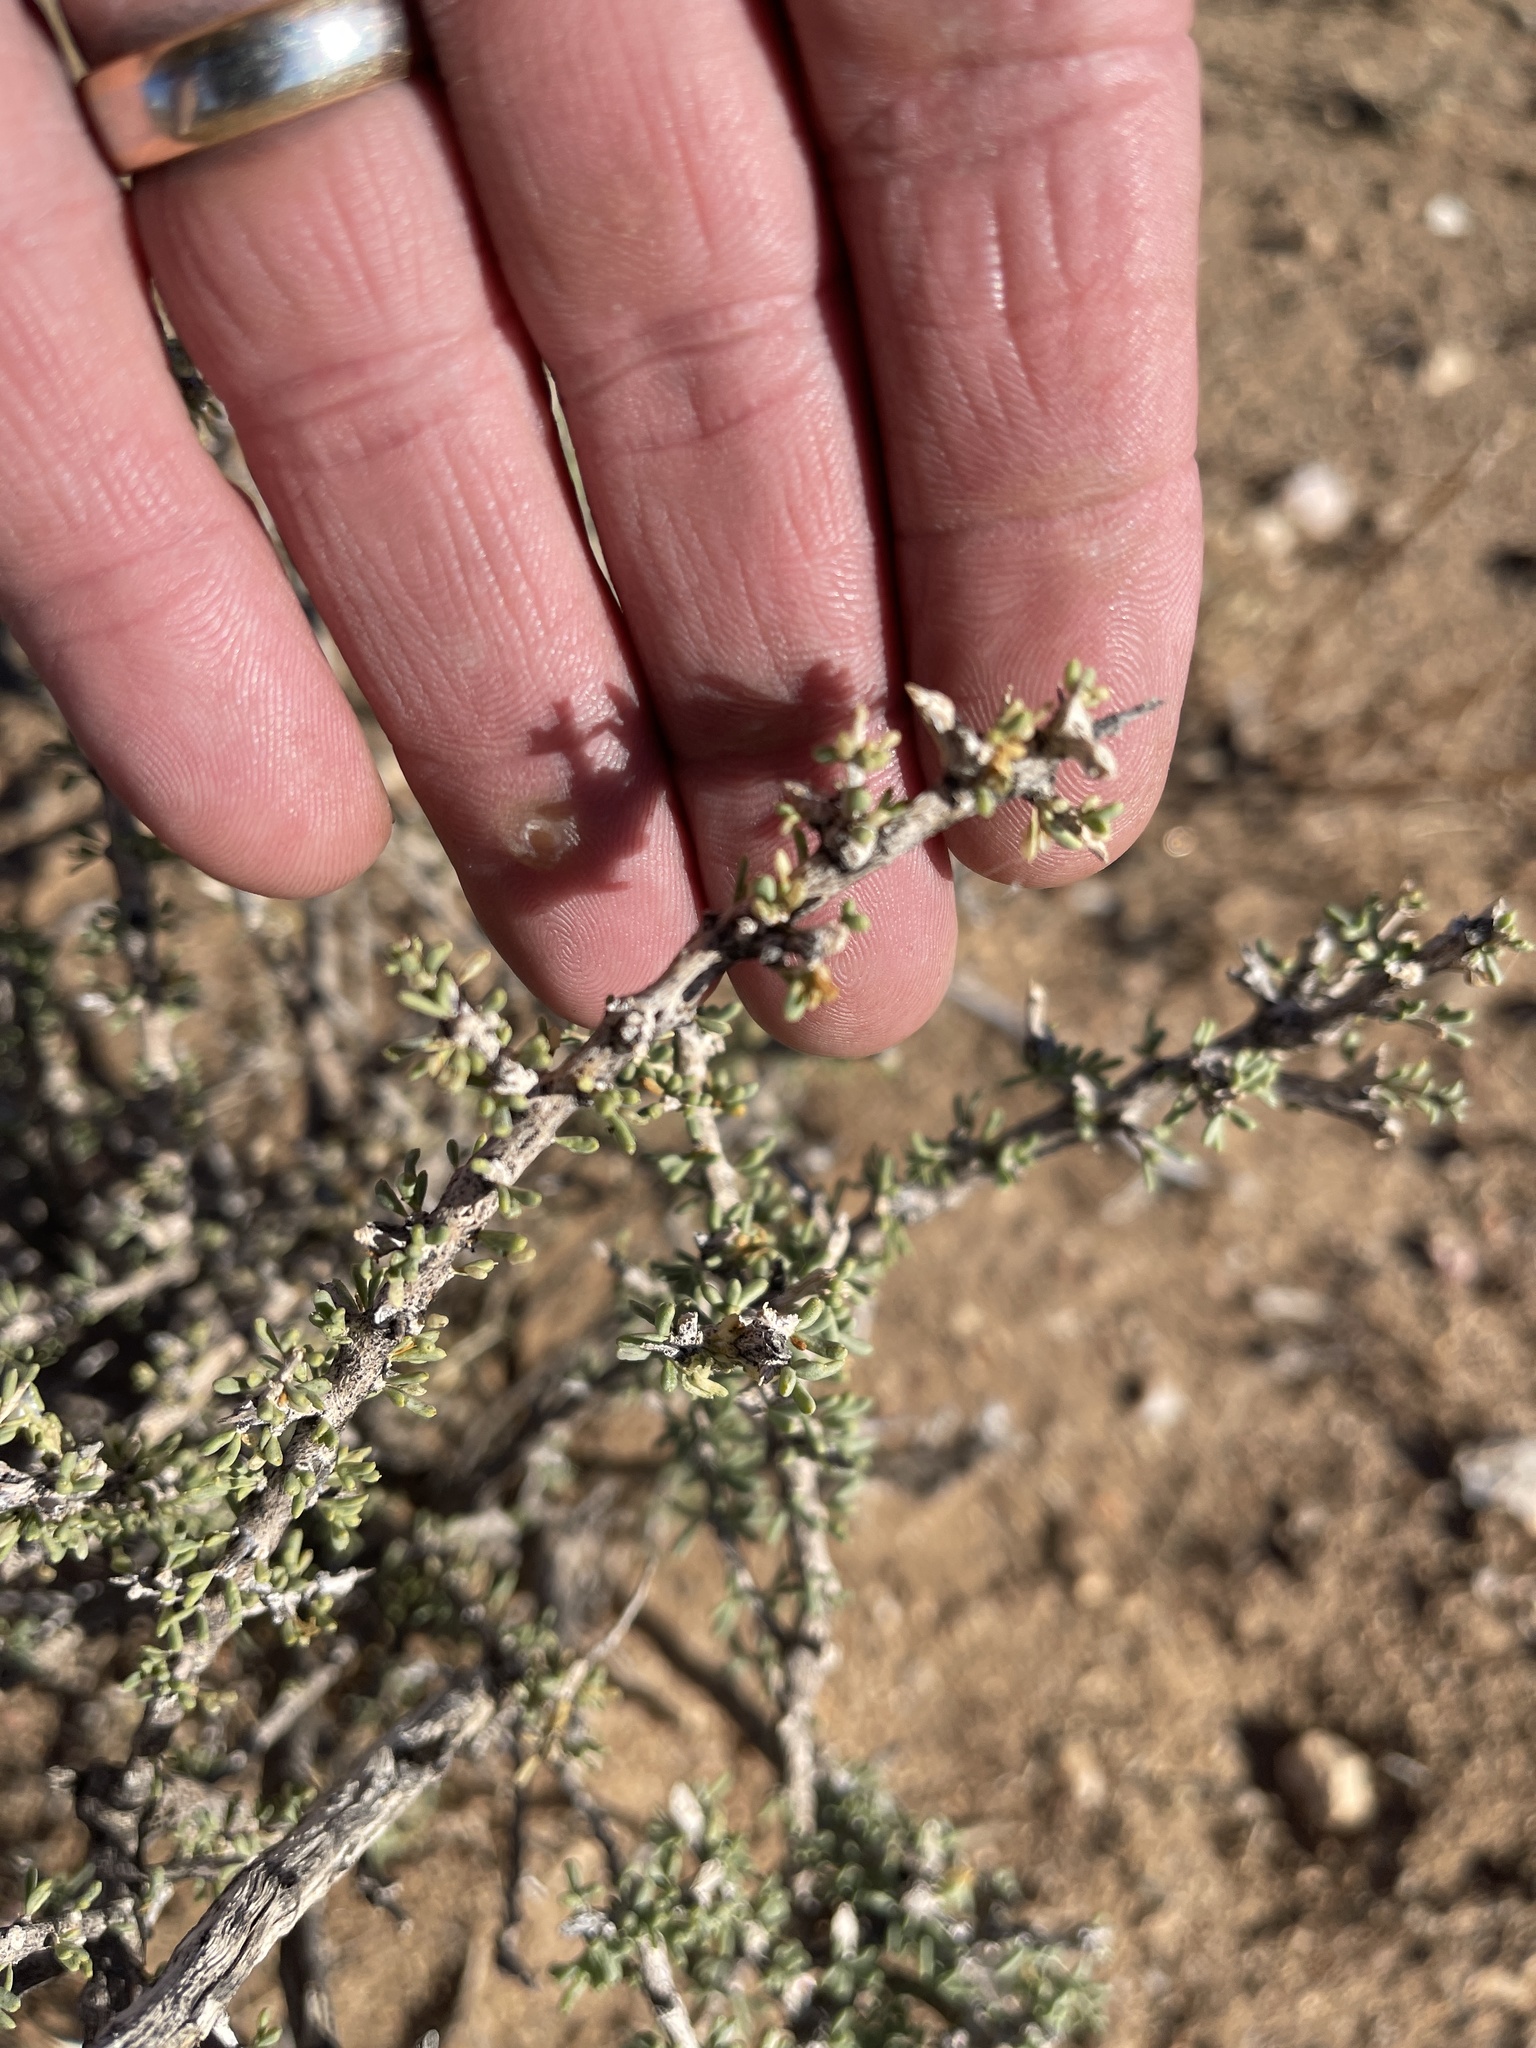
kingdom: Plantae
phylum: Tracheophyta
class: Magnoliopsida
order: Solanales
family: Solanaceae
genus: Lycium
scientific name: Lycium andersonii
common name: Water-jacket
